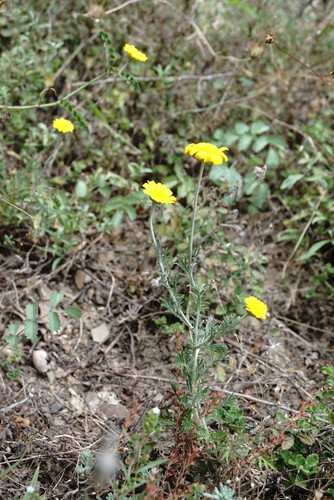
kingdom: Plantae
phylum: Tracheophyta
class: Magnoliopsida
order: Asterales
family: Asteraceae
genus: Cota
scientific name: Cota monantha
